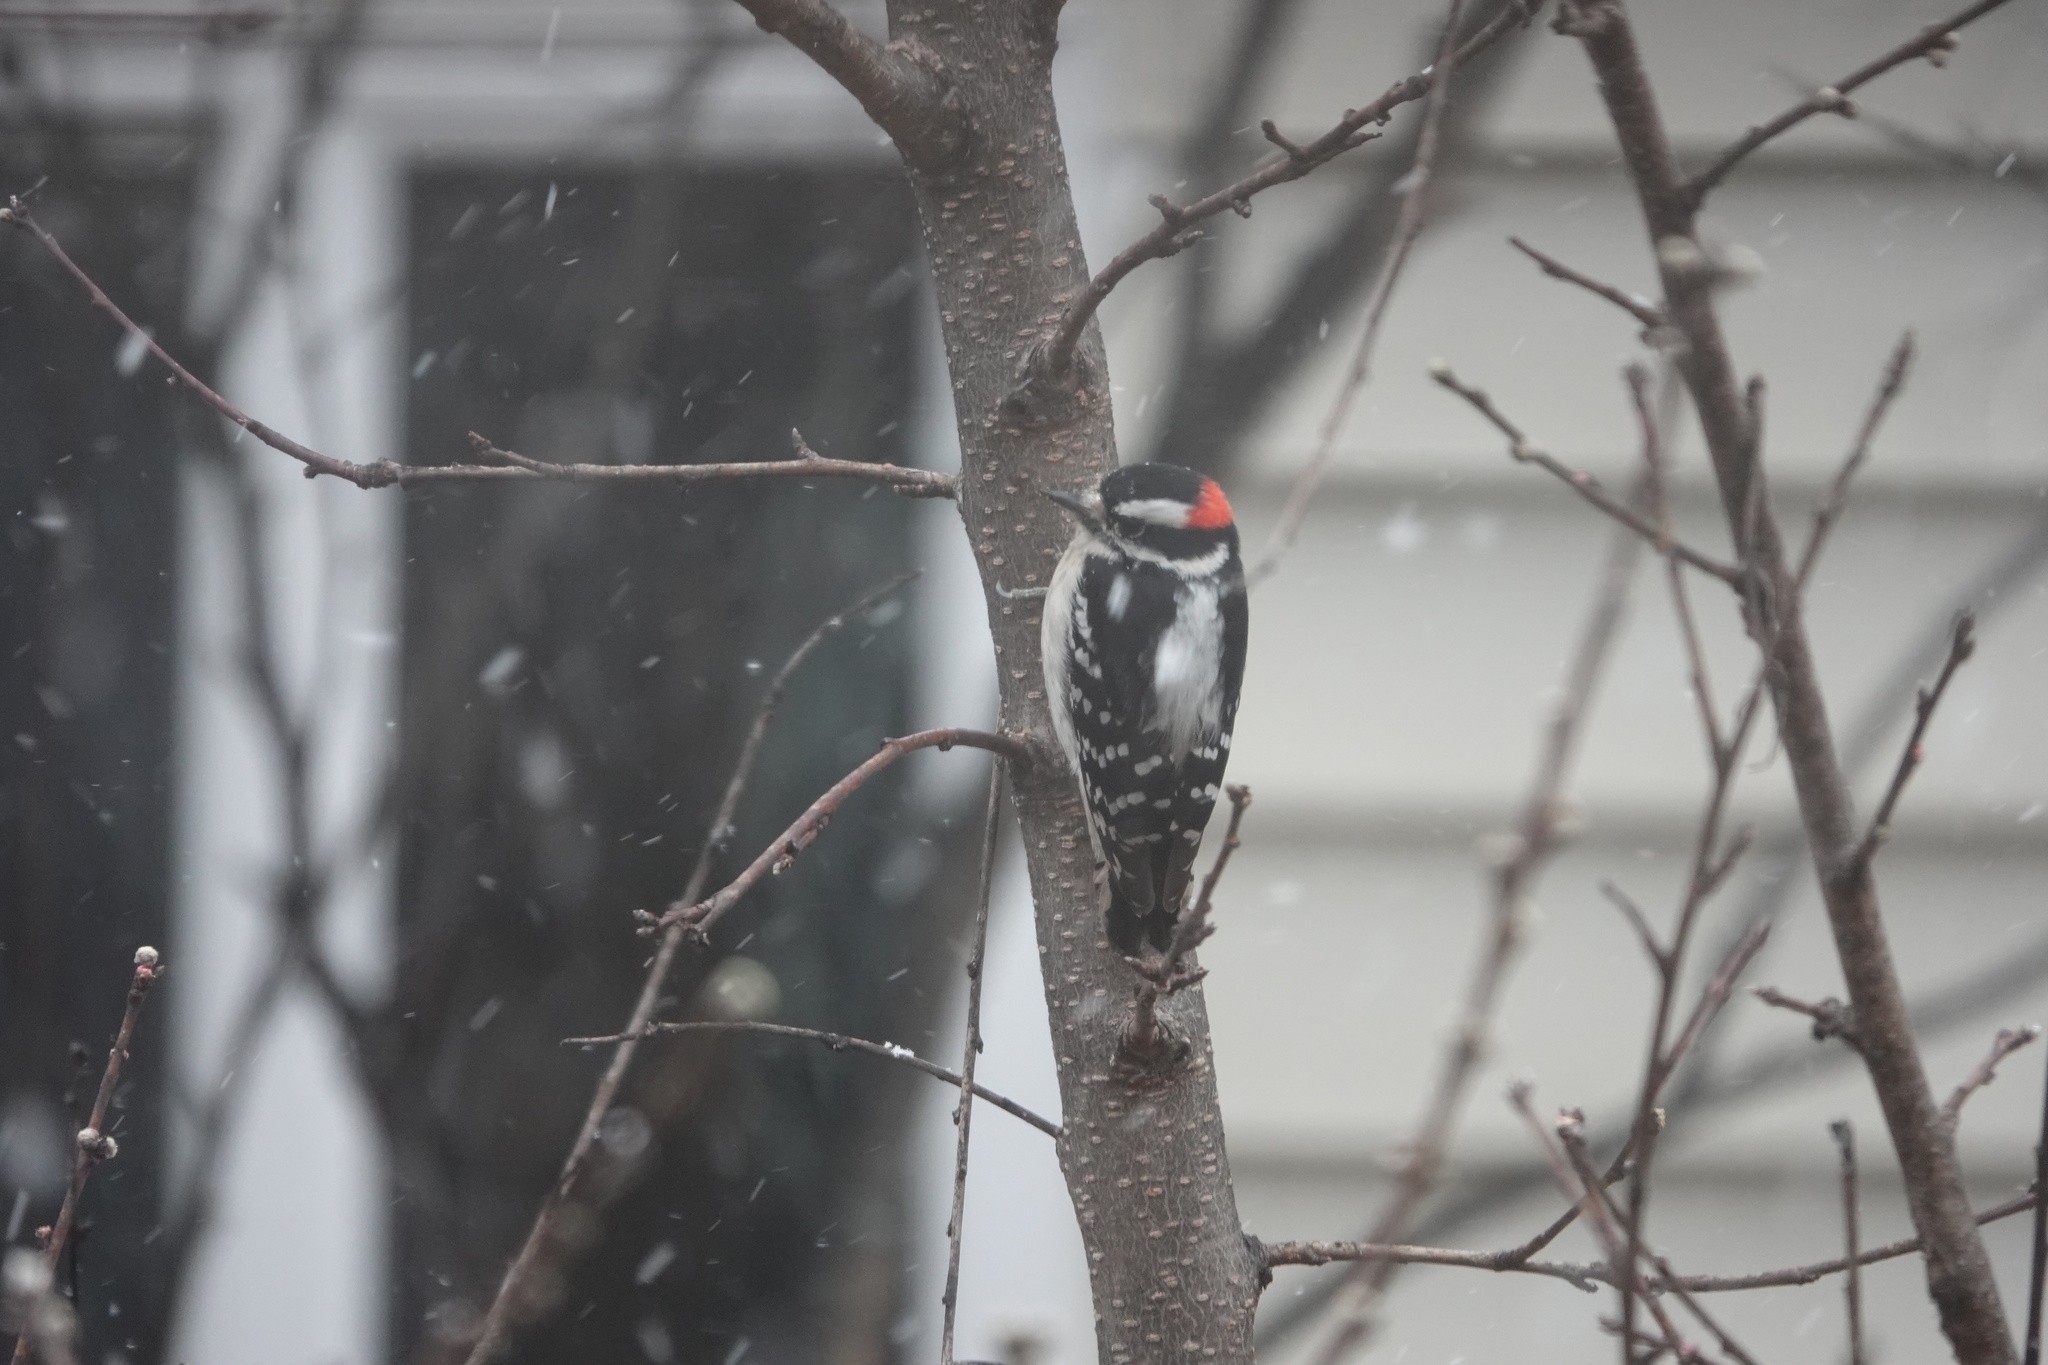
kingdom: Animalia
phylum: Chordata
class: Aves
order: Piciformes
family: Picidae
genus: Dryobates
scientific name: Dryobates pubescens
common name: Downy woodpecker
